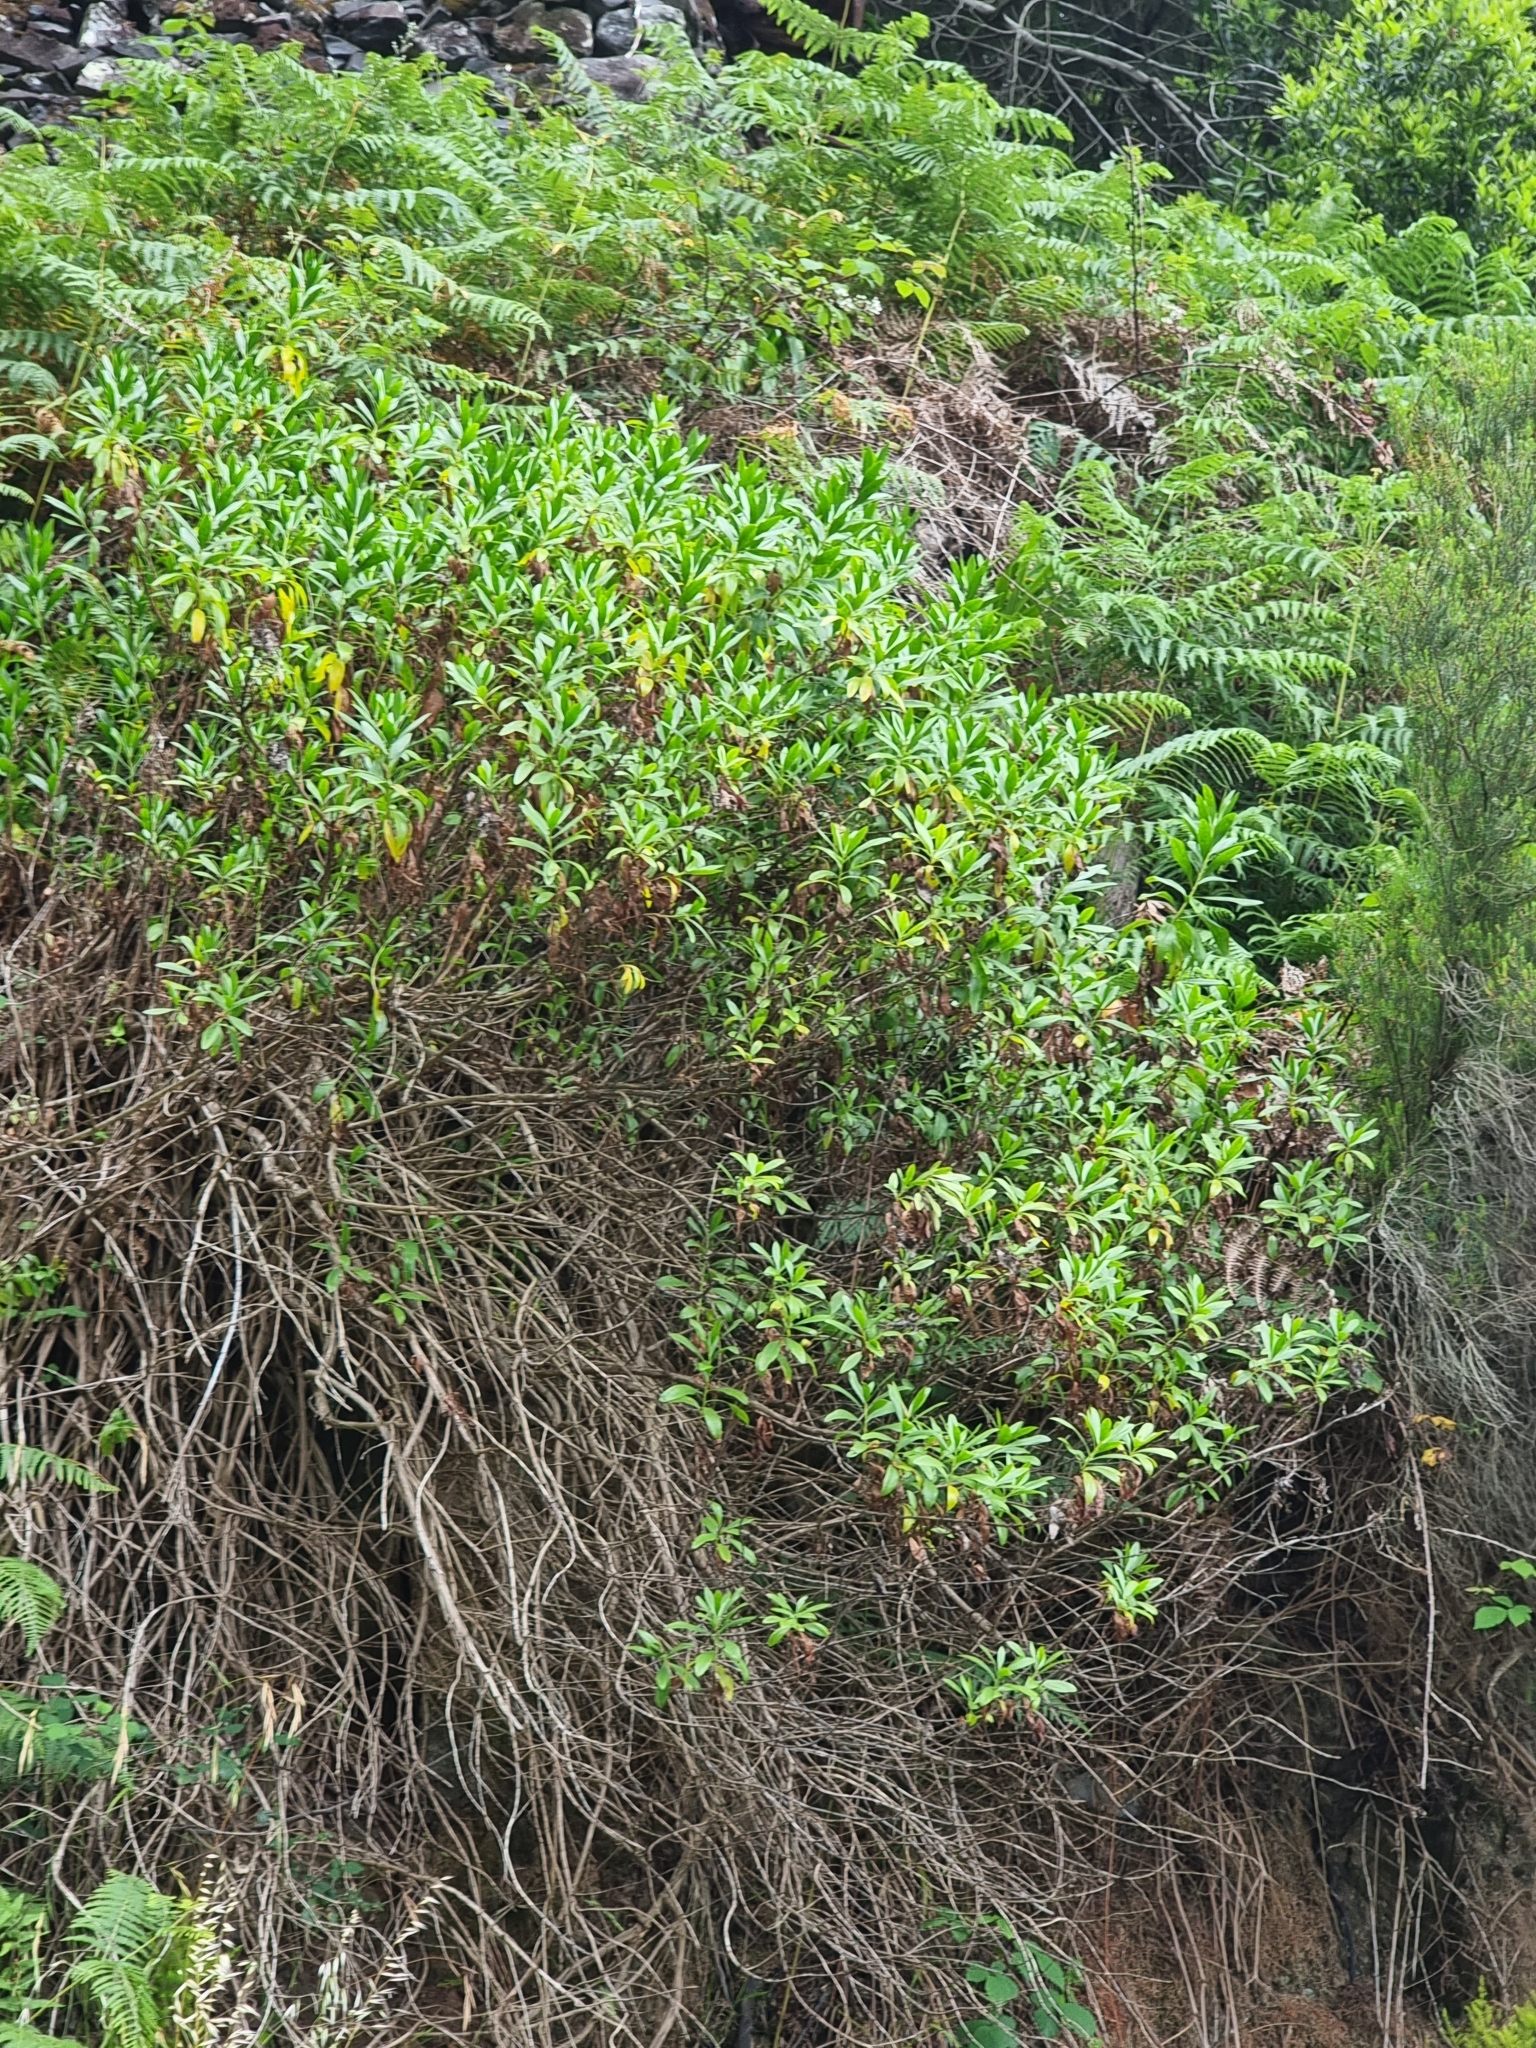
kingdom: Plantae
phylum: Tracheophyta
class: Magnoliopsida
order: Lamiales
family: Plantaginaceae
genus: Globularia
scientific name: Globularia salicina
